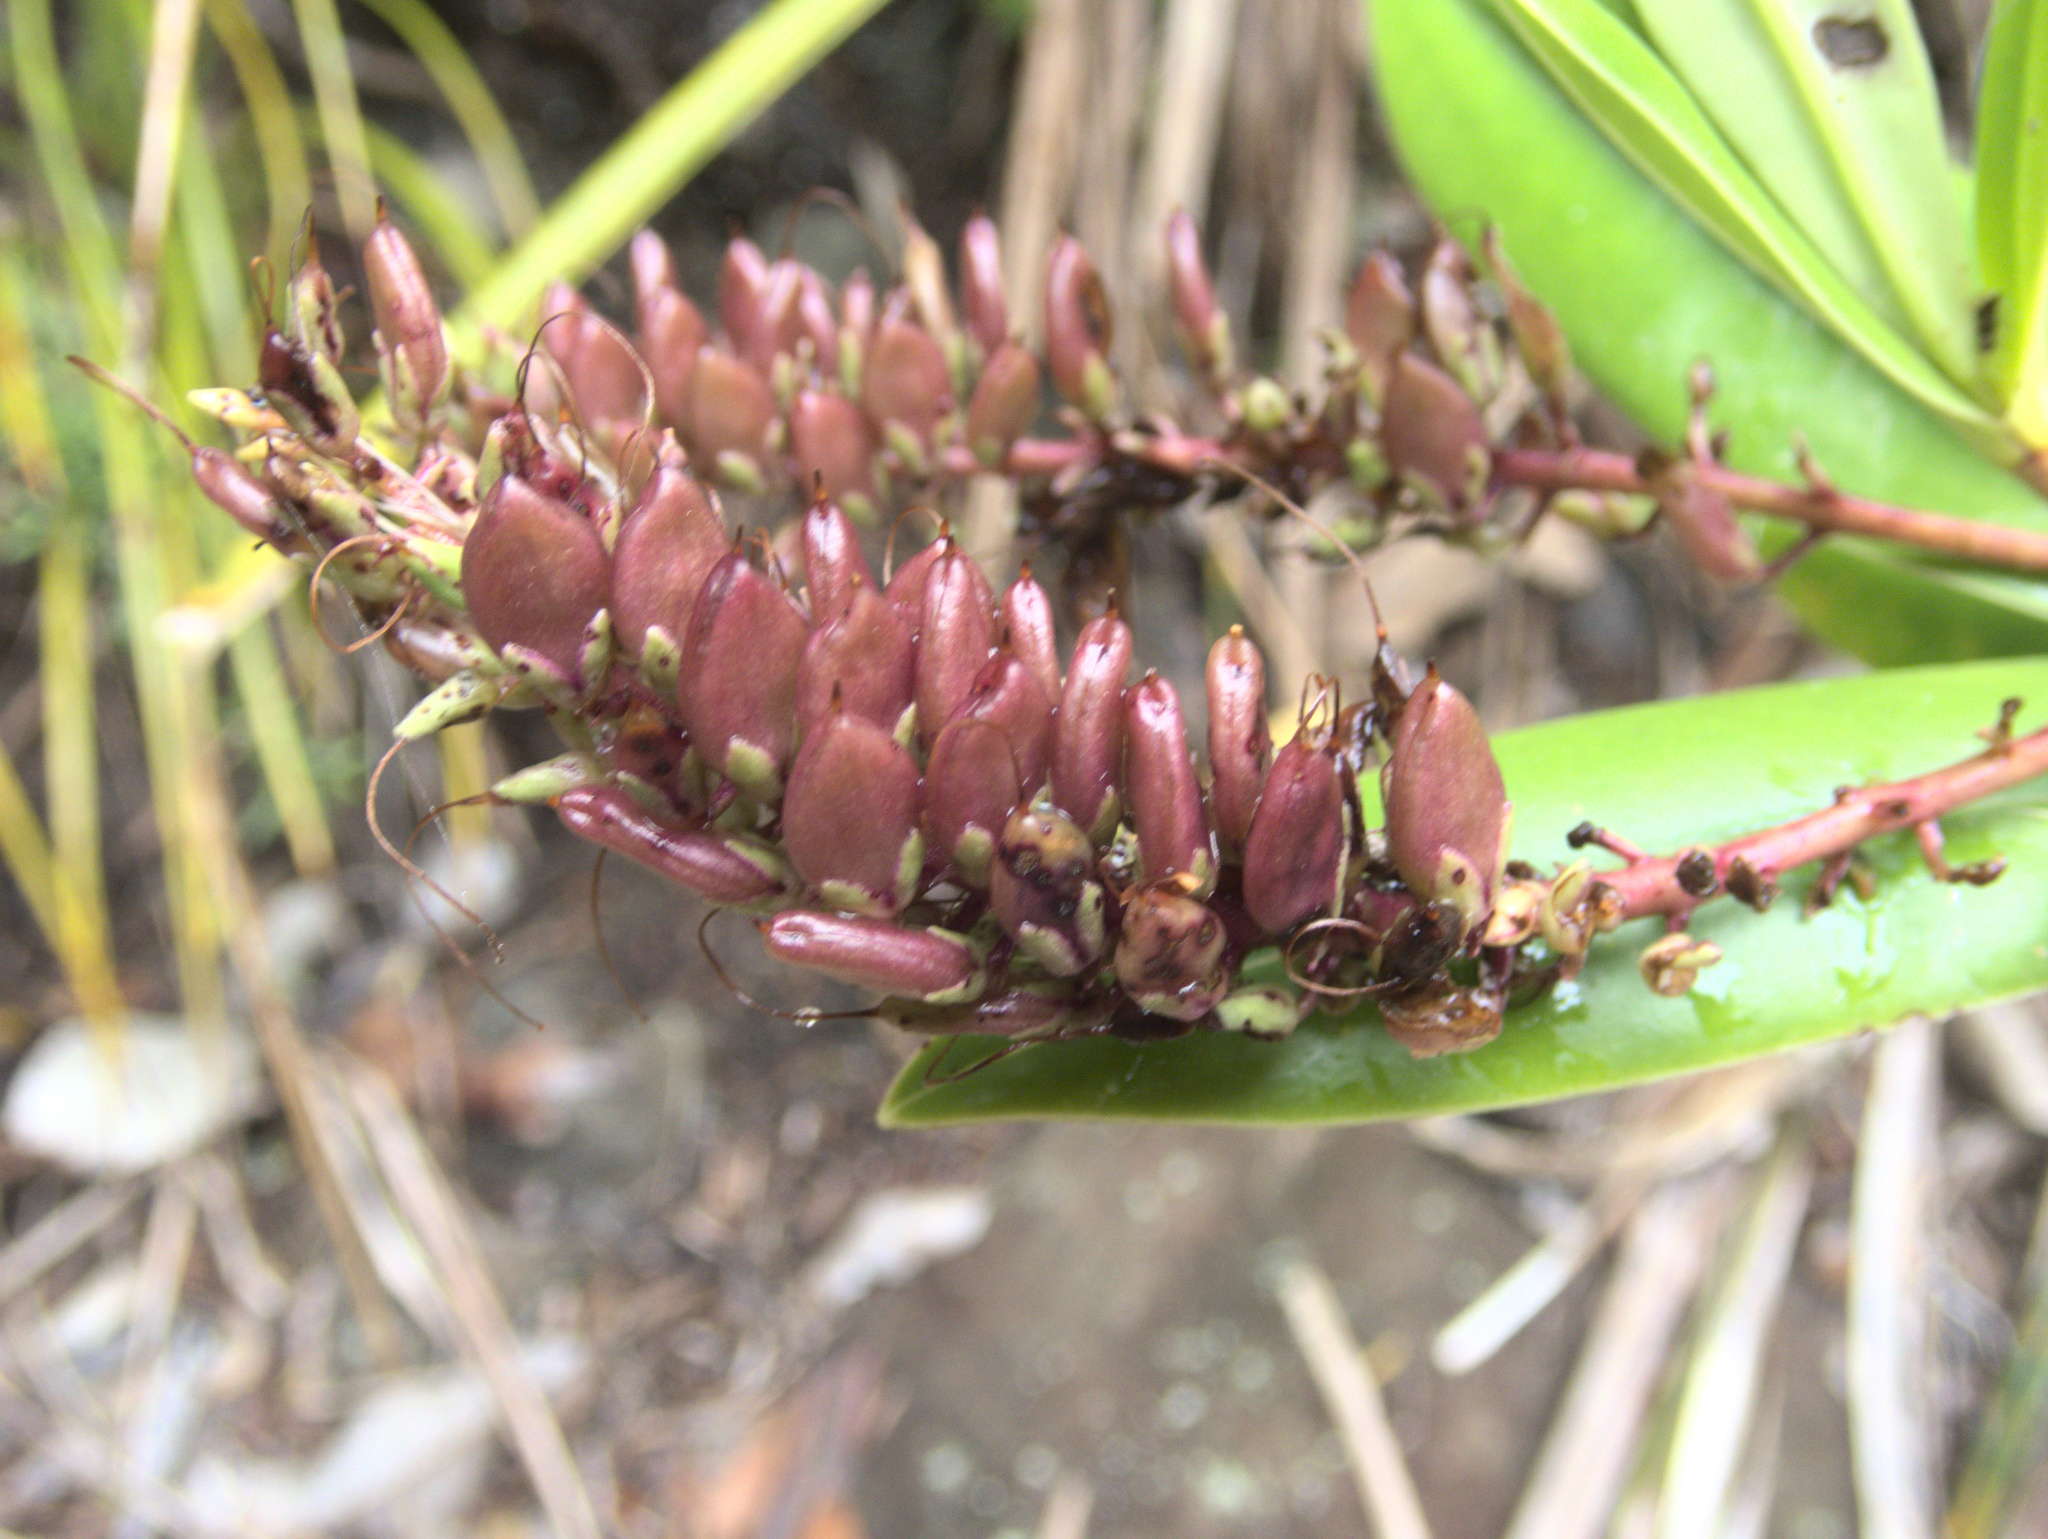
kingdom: Plantae
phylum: Tracheophyta
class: Magnoliopsida
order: Lamiales
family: Plantaginaceae
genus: Veronica
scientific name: Veronica macrocarpa
